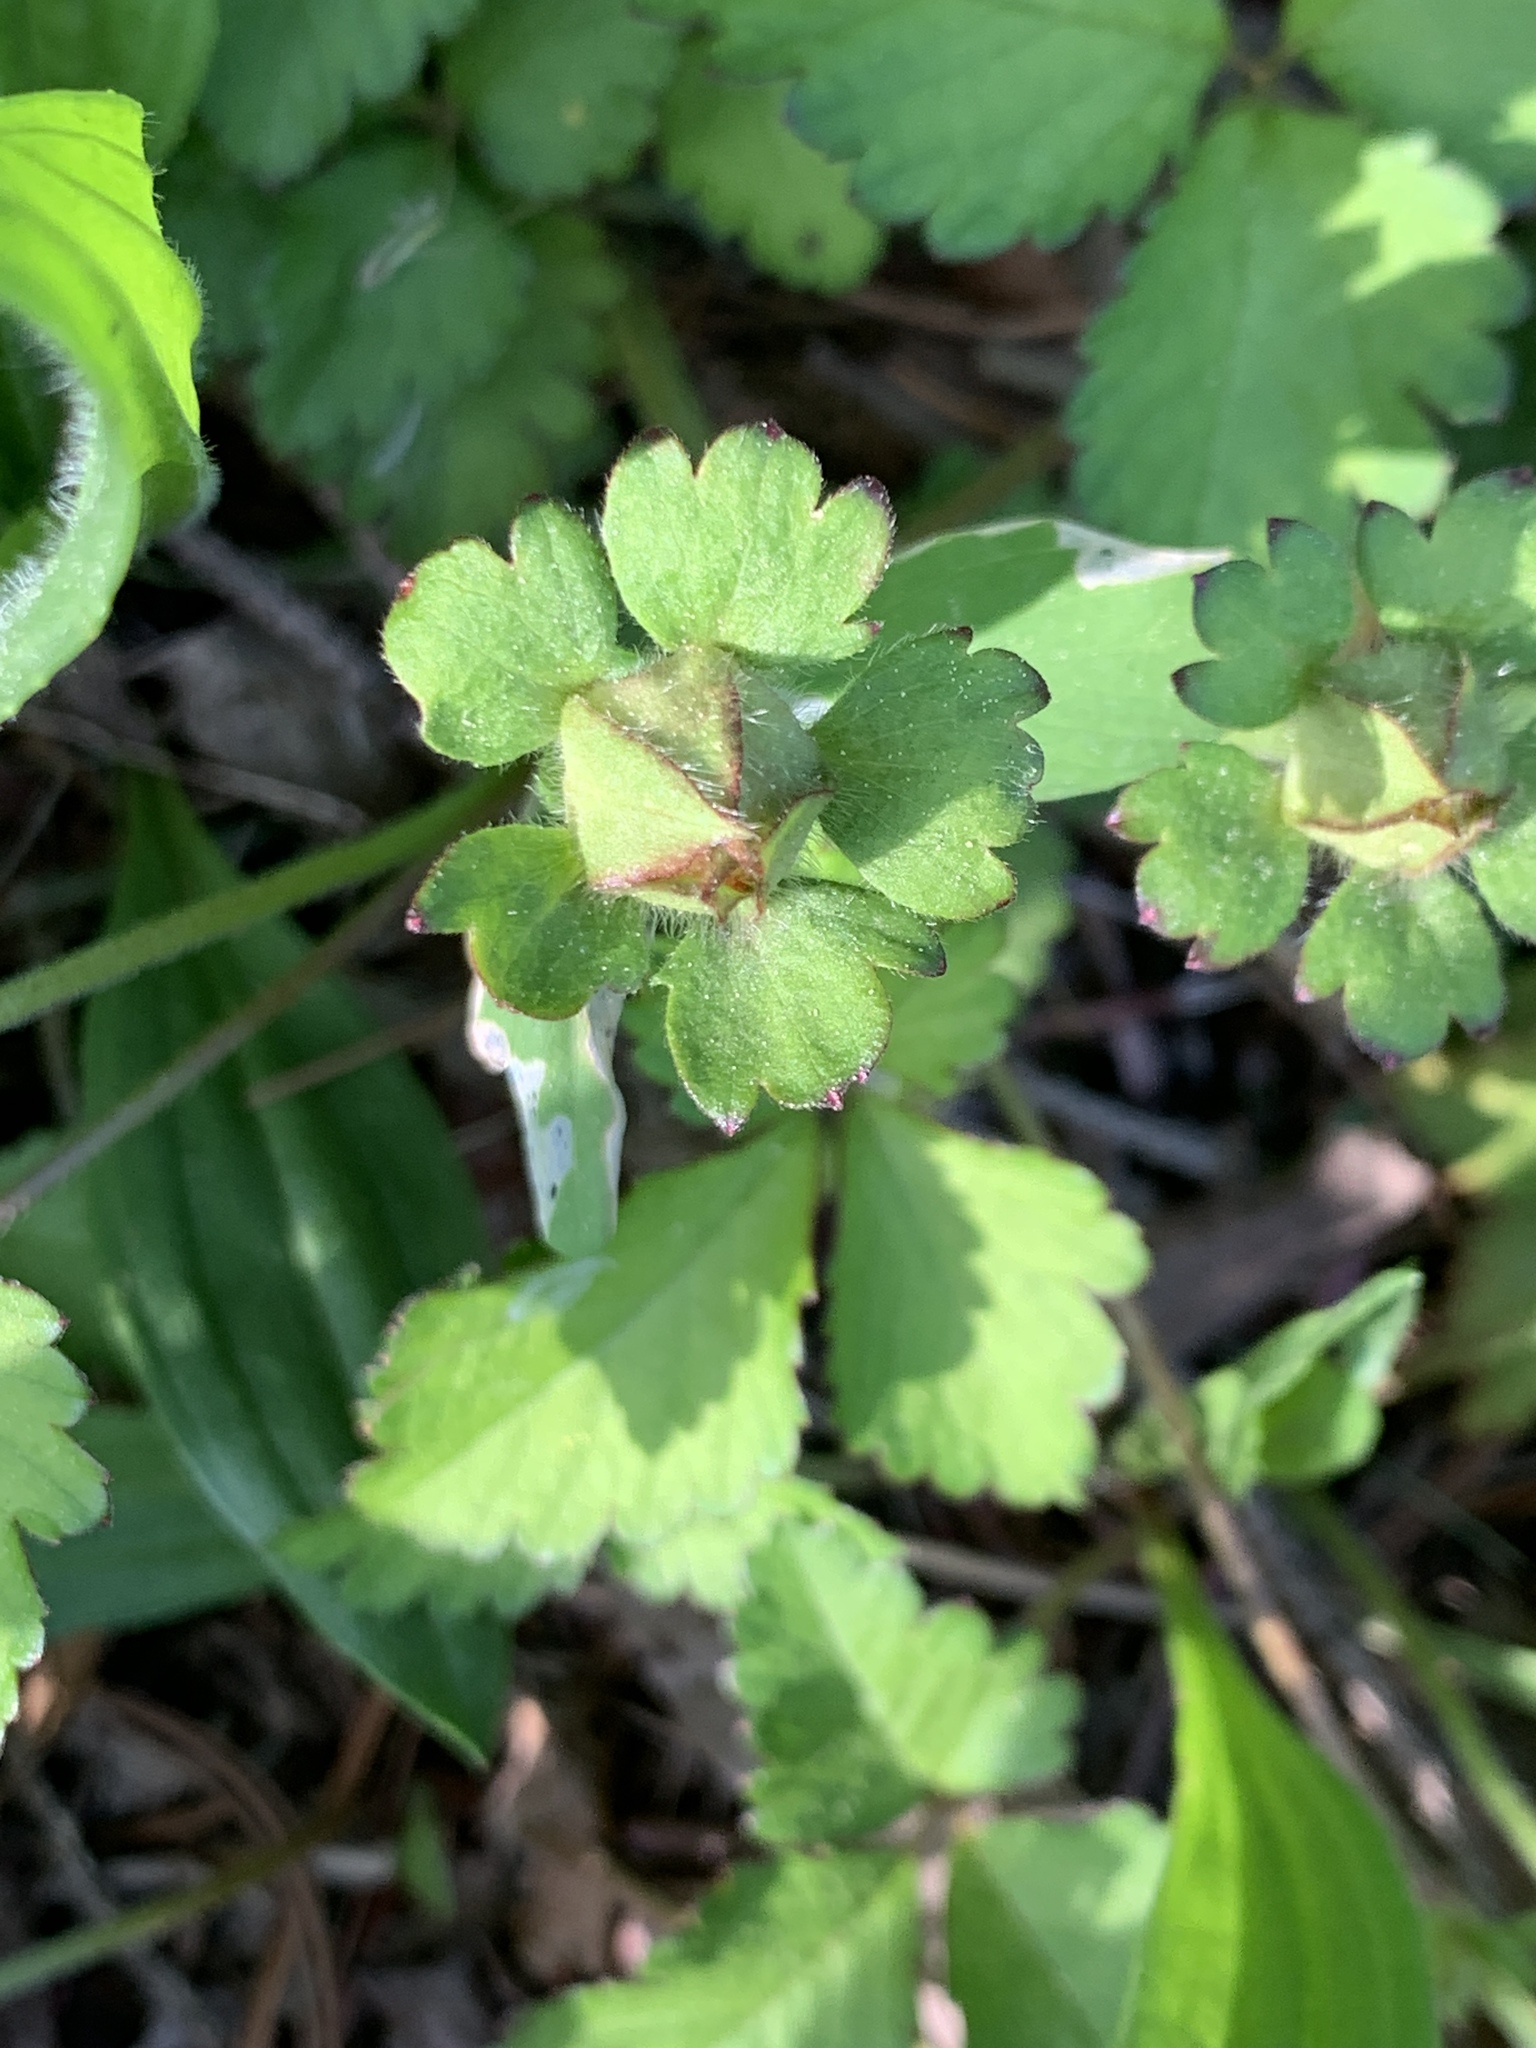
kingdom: Plantae
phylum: Tracheophyta
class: Magnoliopsida
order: Rosales
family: Rosaceae
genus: Potentilla
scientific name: Potentilla indica
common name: Yellow-flowered strawberry
